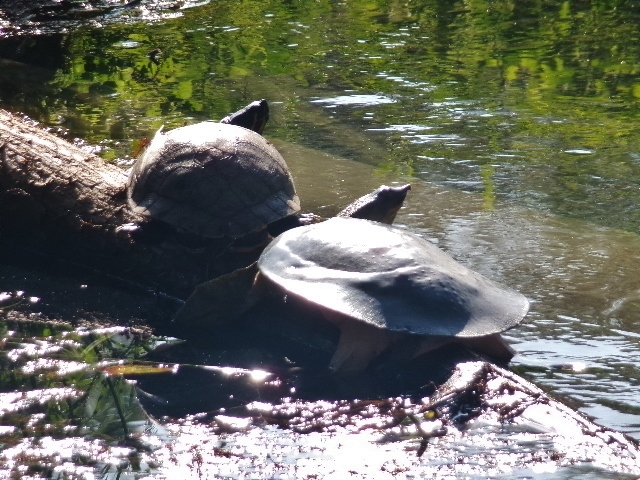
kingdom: Animalia
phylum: Chordata
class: Testudines
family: Trionychidae
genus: Apalone
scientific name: Apalone spinifera
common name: Spiny softshell turtle
